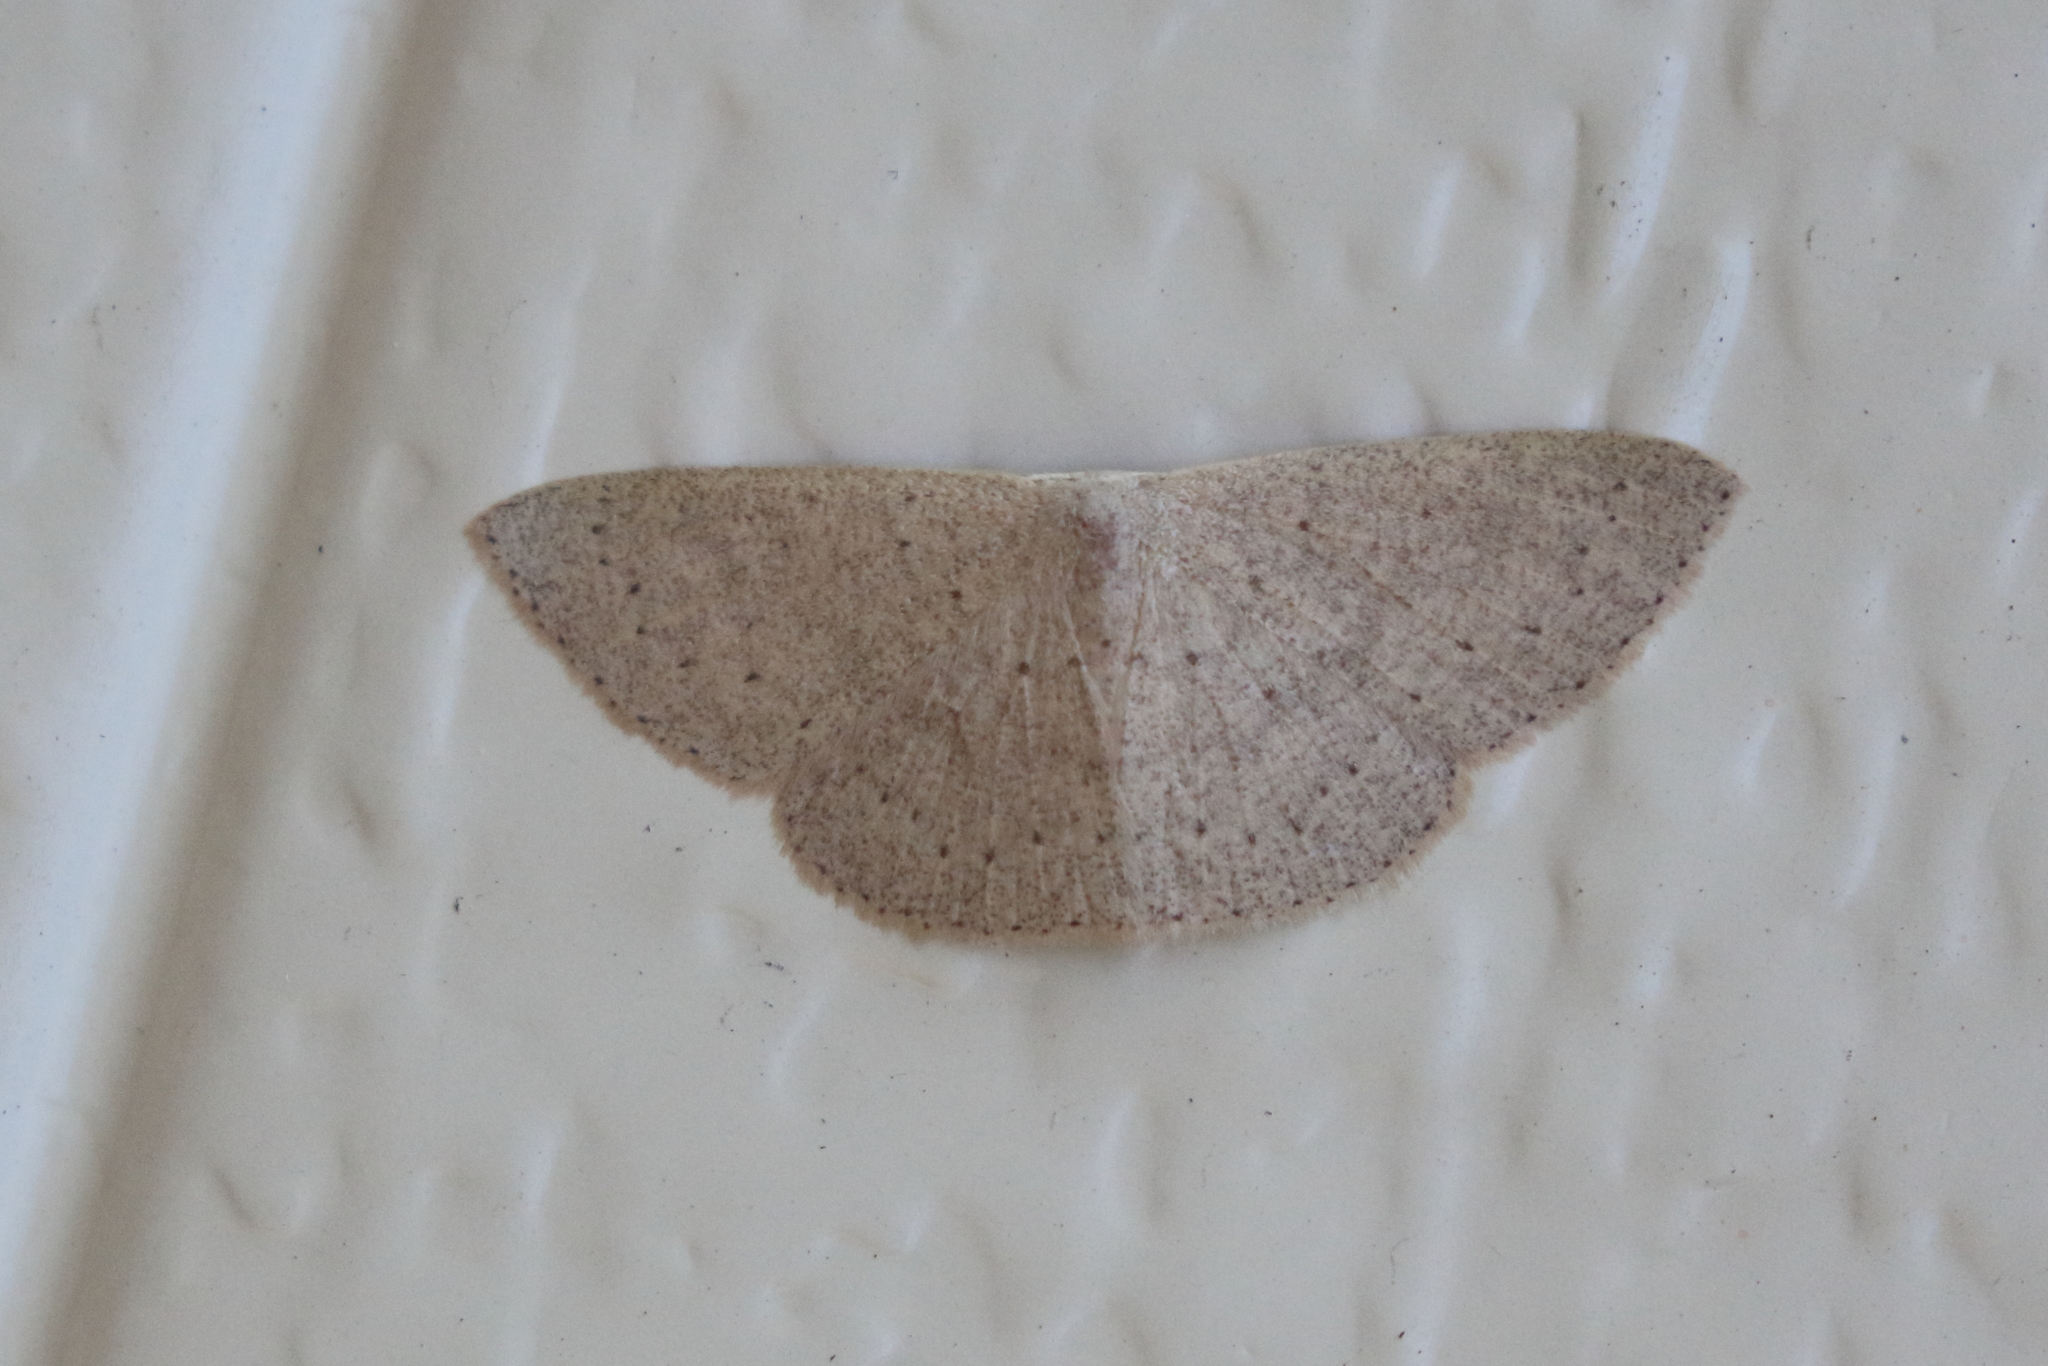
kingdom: Animalia
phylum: Arthropoda
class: Insecta
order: Lepidoptera
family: Geometridae
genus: Cyclophora
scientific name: Cyclophora obstataria
